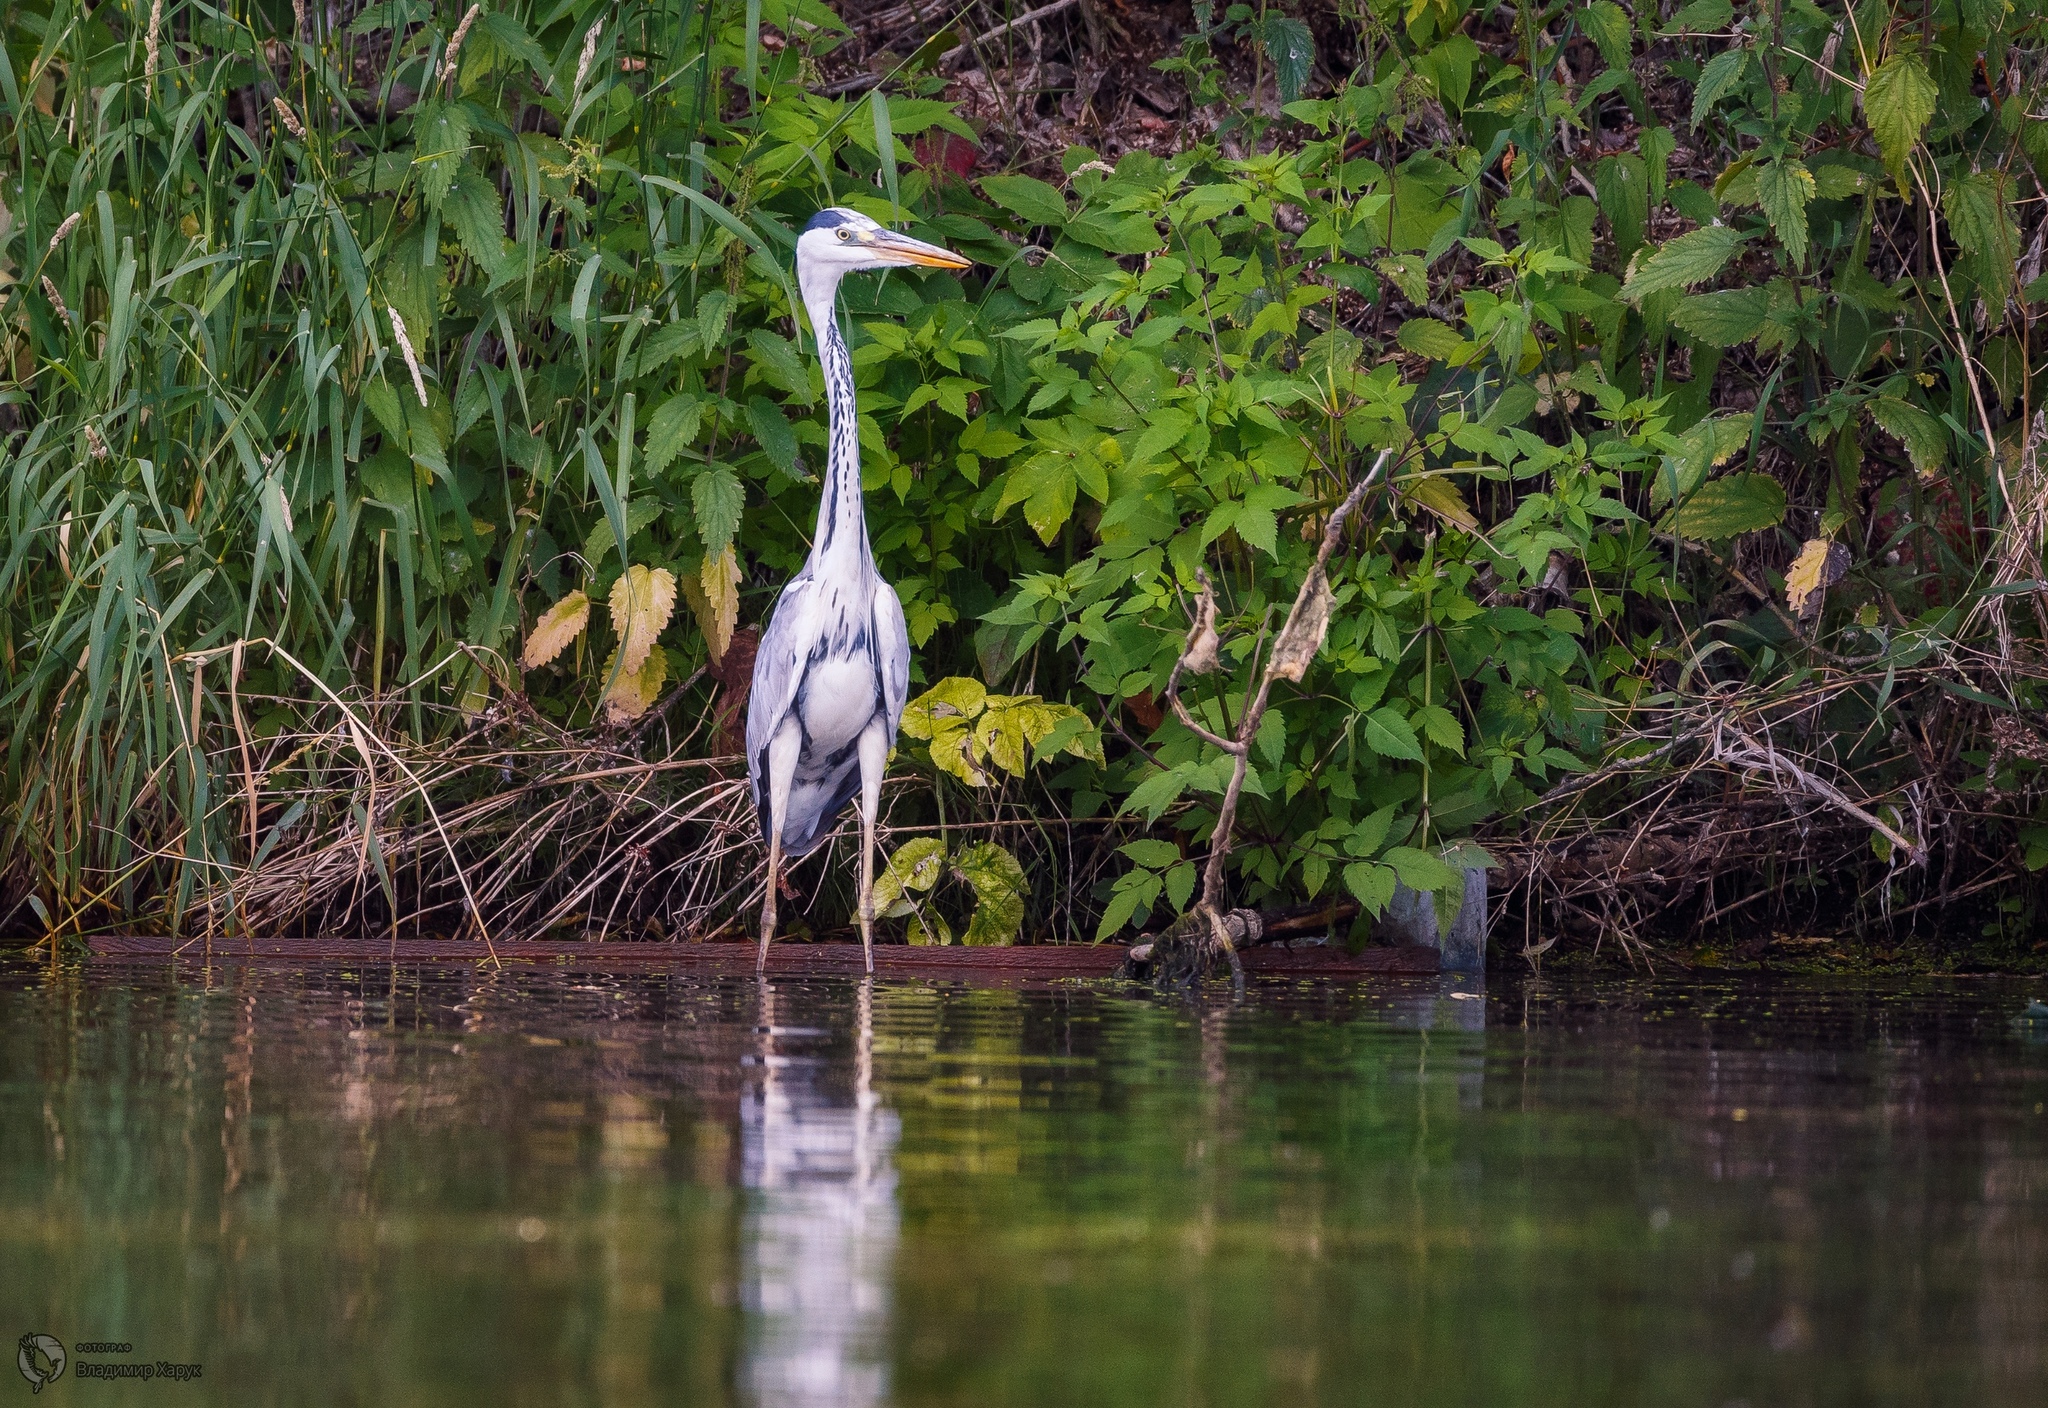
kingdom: Animalia
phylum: Chordata
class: Aves
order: Pelecaniformes
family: Ardeidae
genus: Ardea
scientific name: Ardea cinerea
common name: Grey heron
